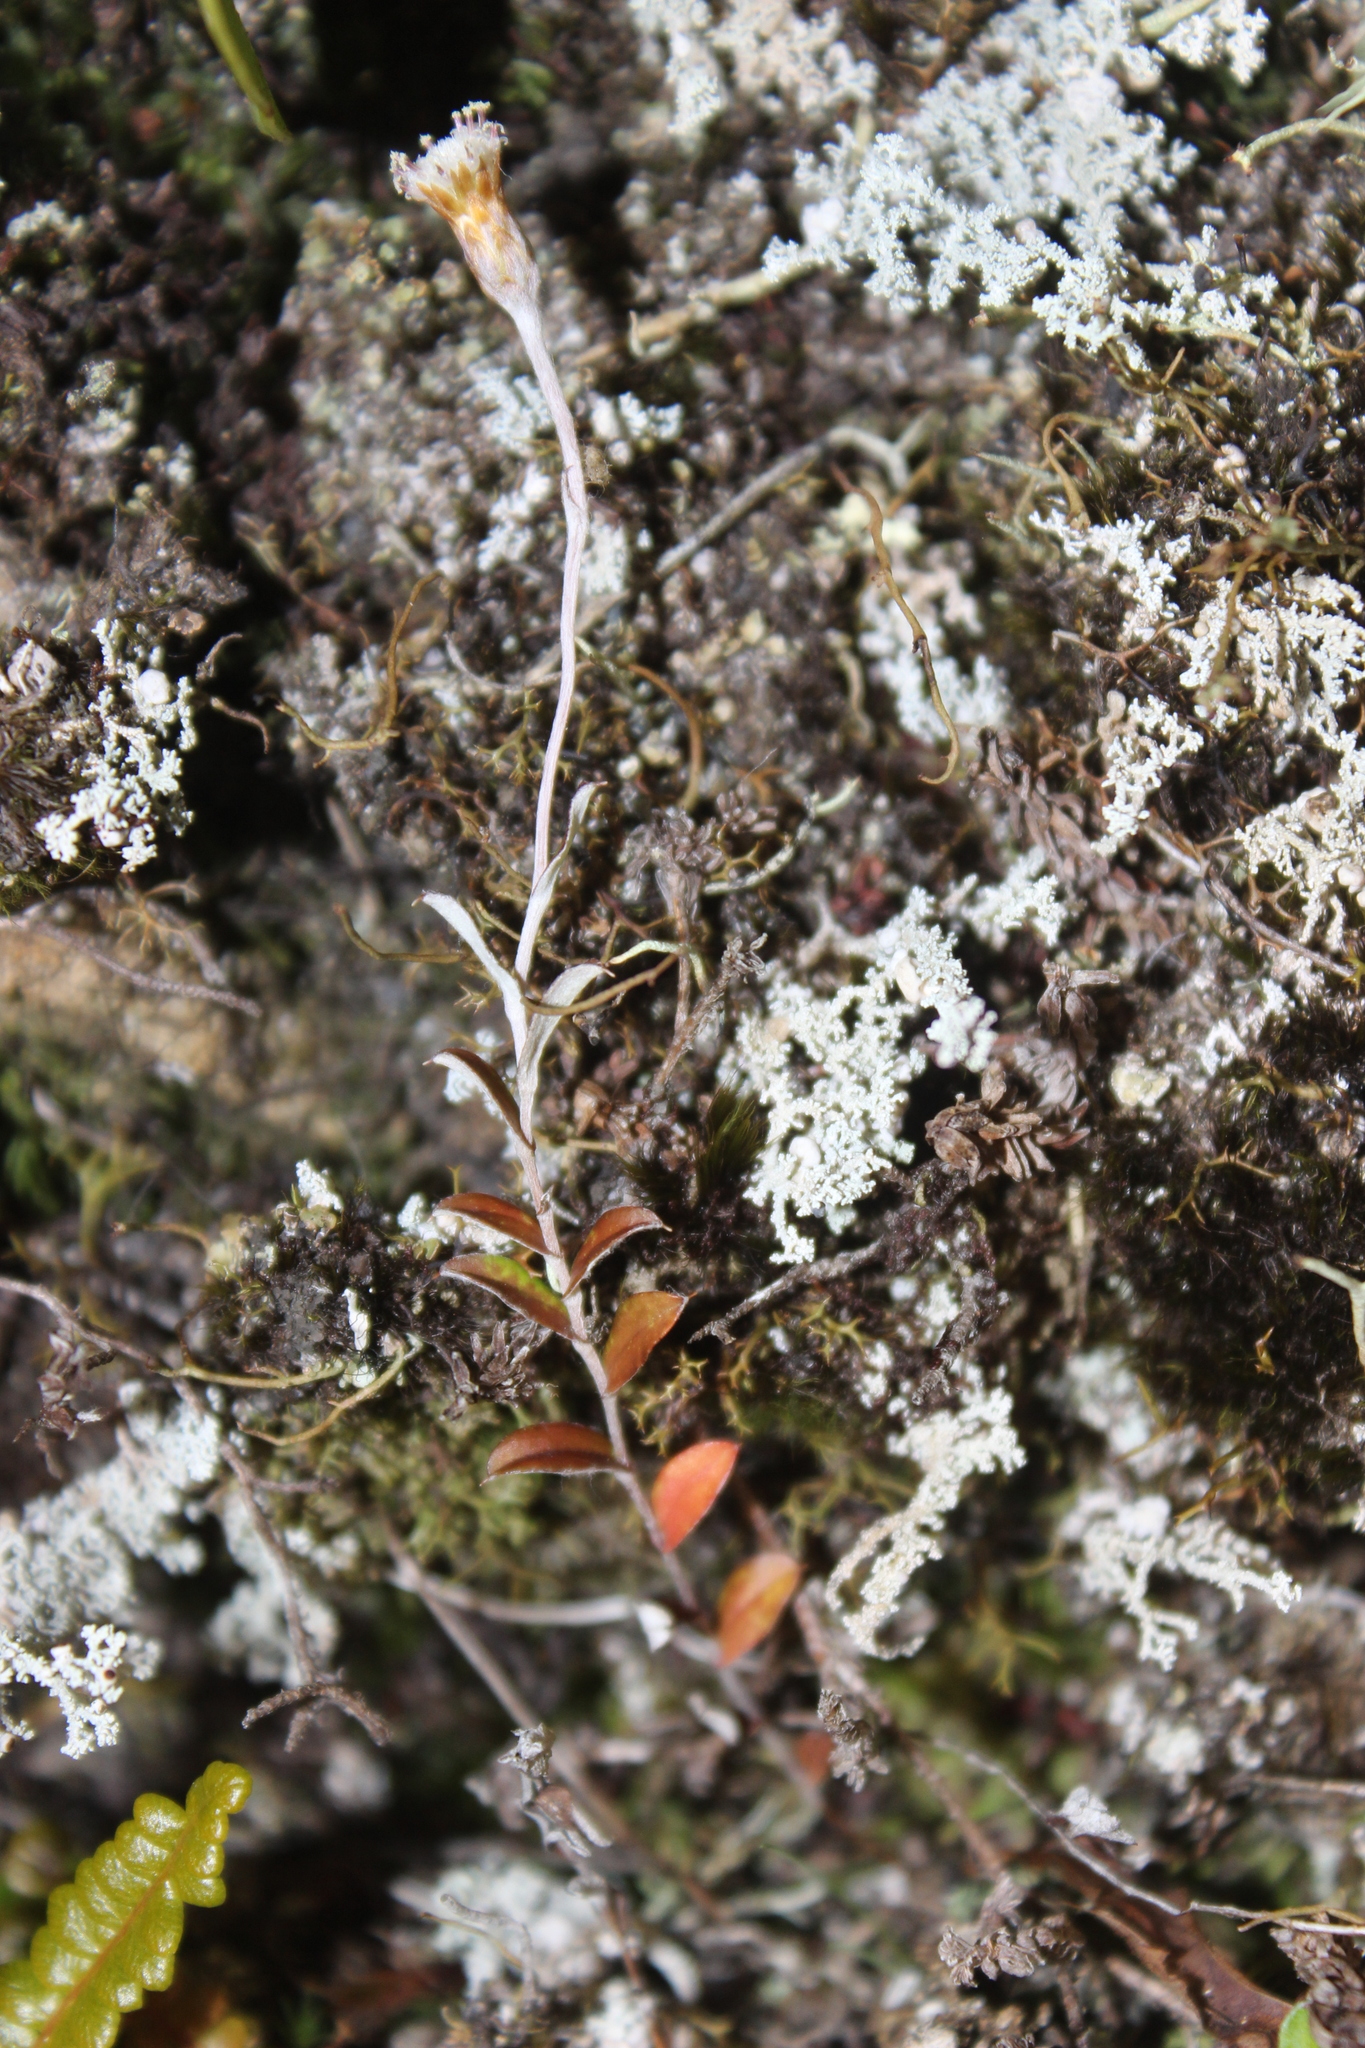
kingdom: Plantae
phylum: Tracheophyta
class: Magnoliopsida
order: Asterales
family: Asteraceae
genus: Helichrysum
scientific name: Helichrysum filicaule
